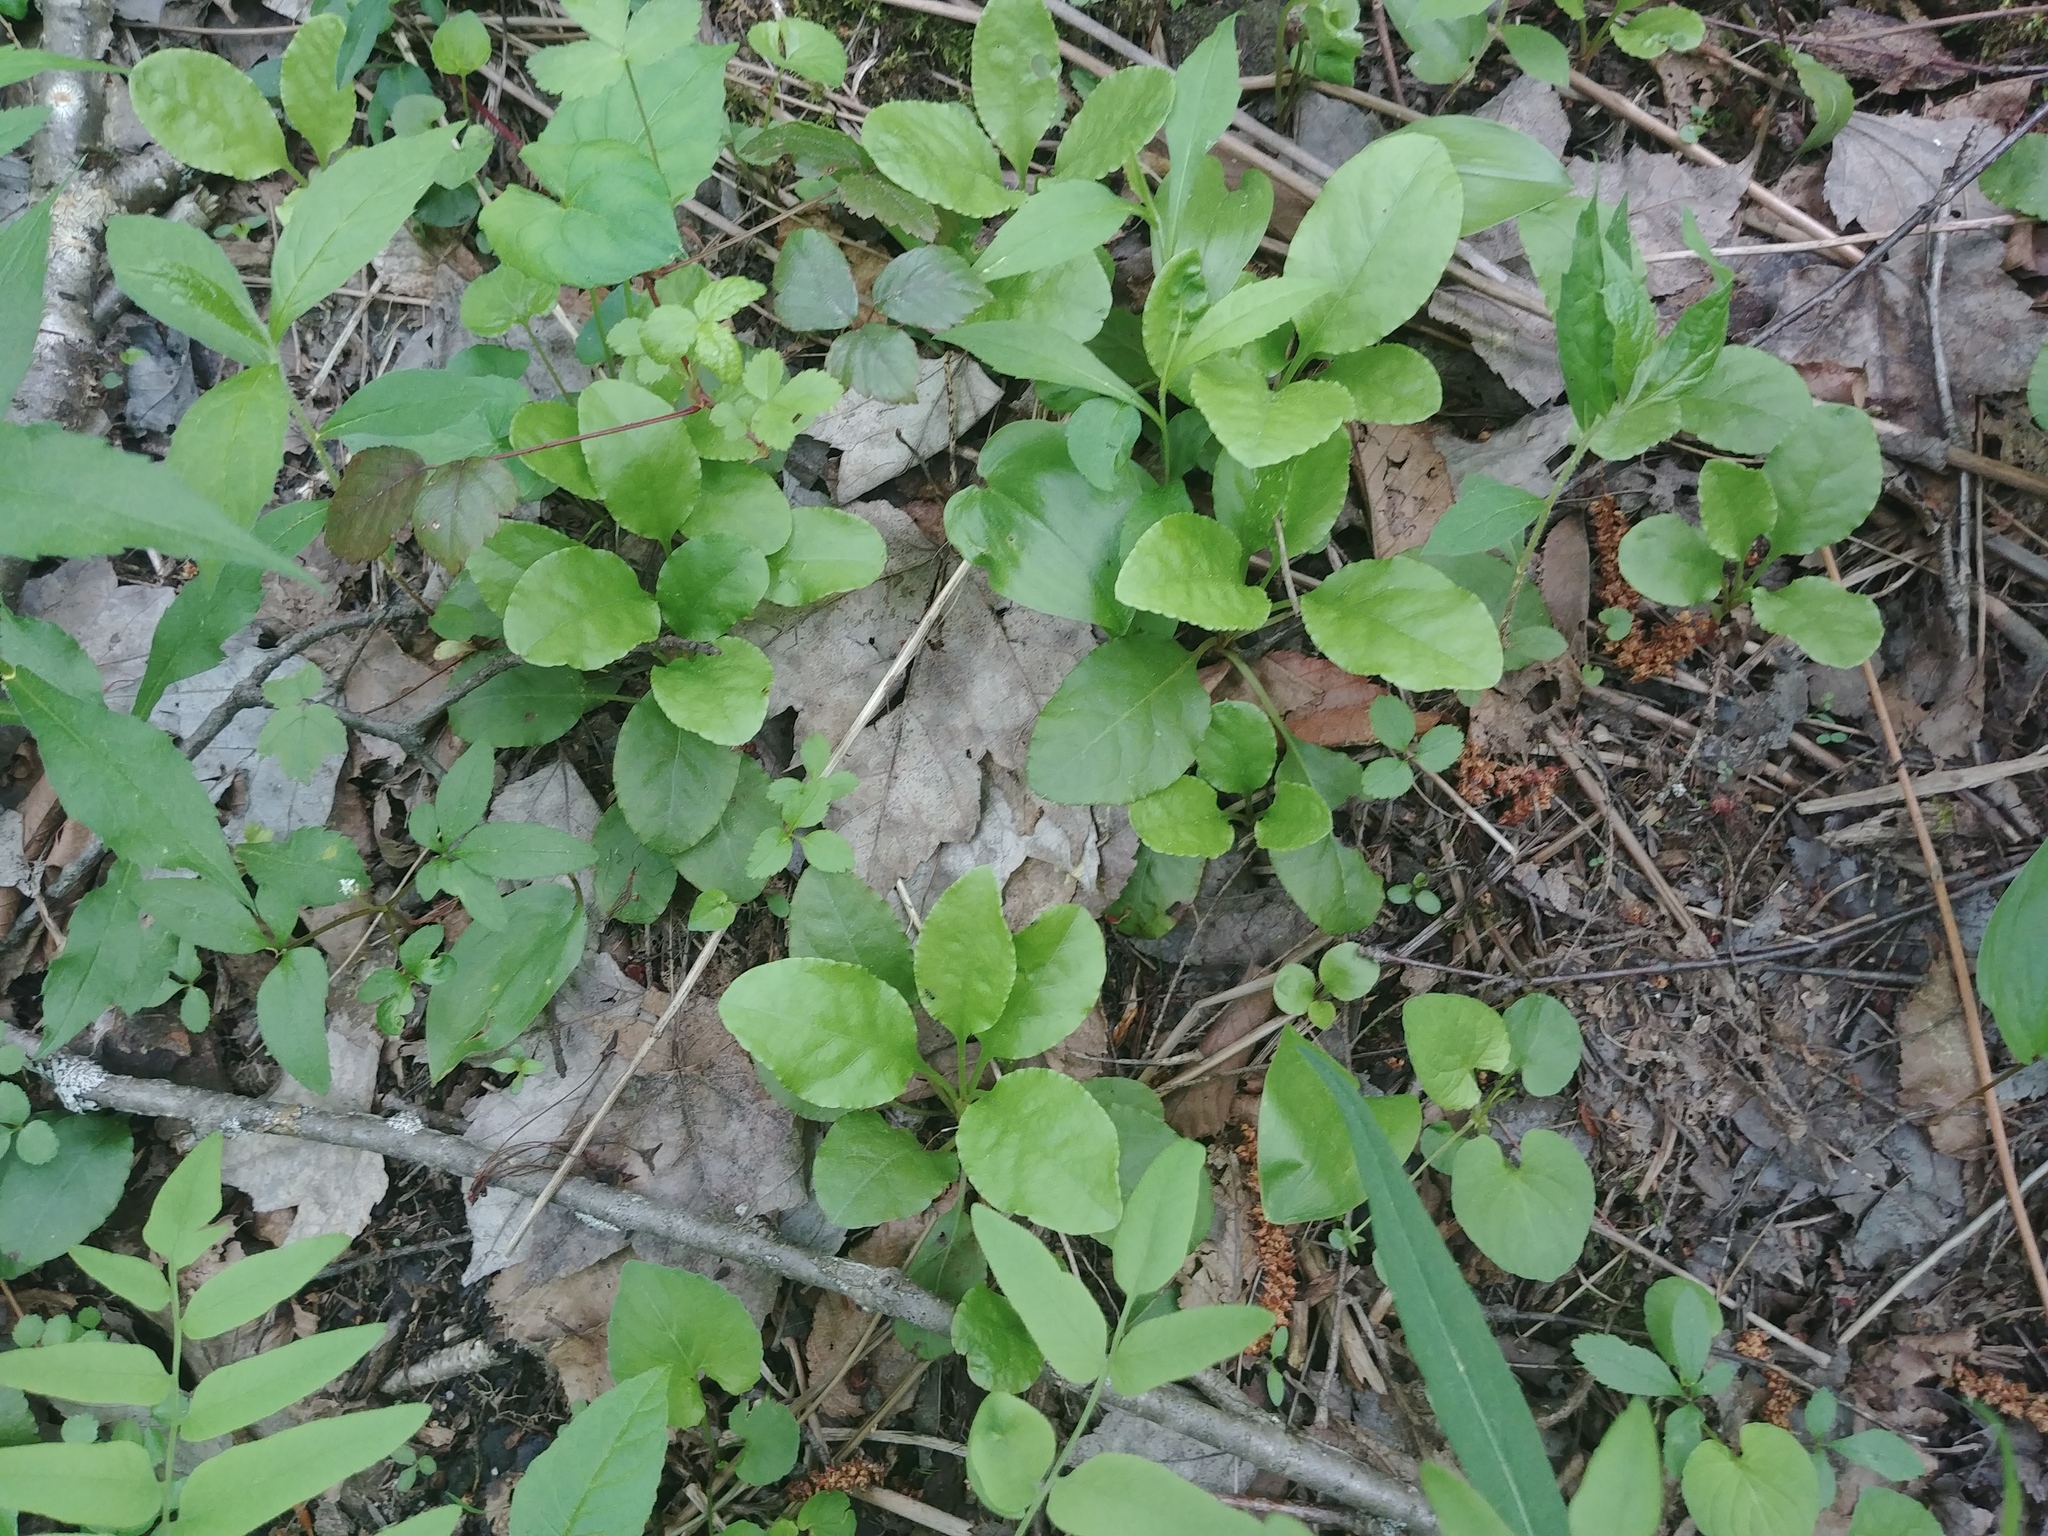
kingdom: Plantae
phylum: Tracheophyta
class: Magnoliopsida
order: Ericales
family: Ericaceae
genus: Pyrola
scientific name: Pyrola elliptica
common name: Shinleaf
